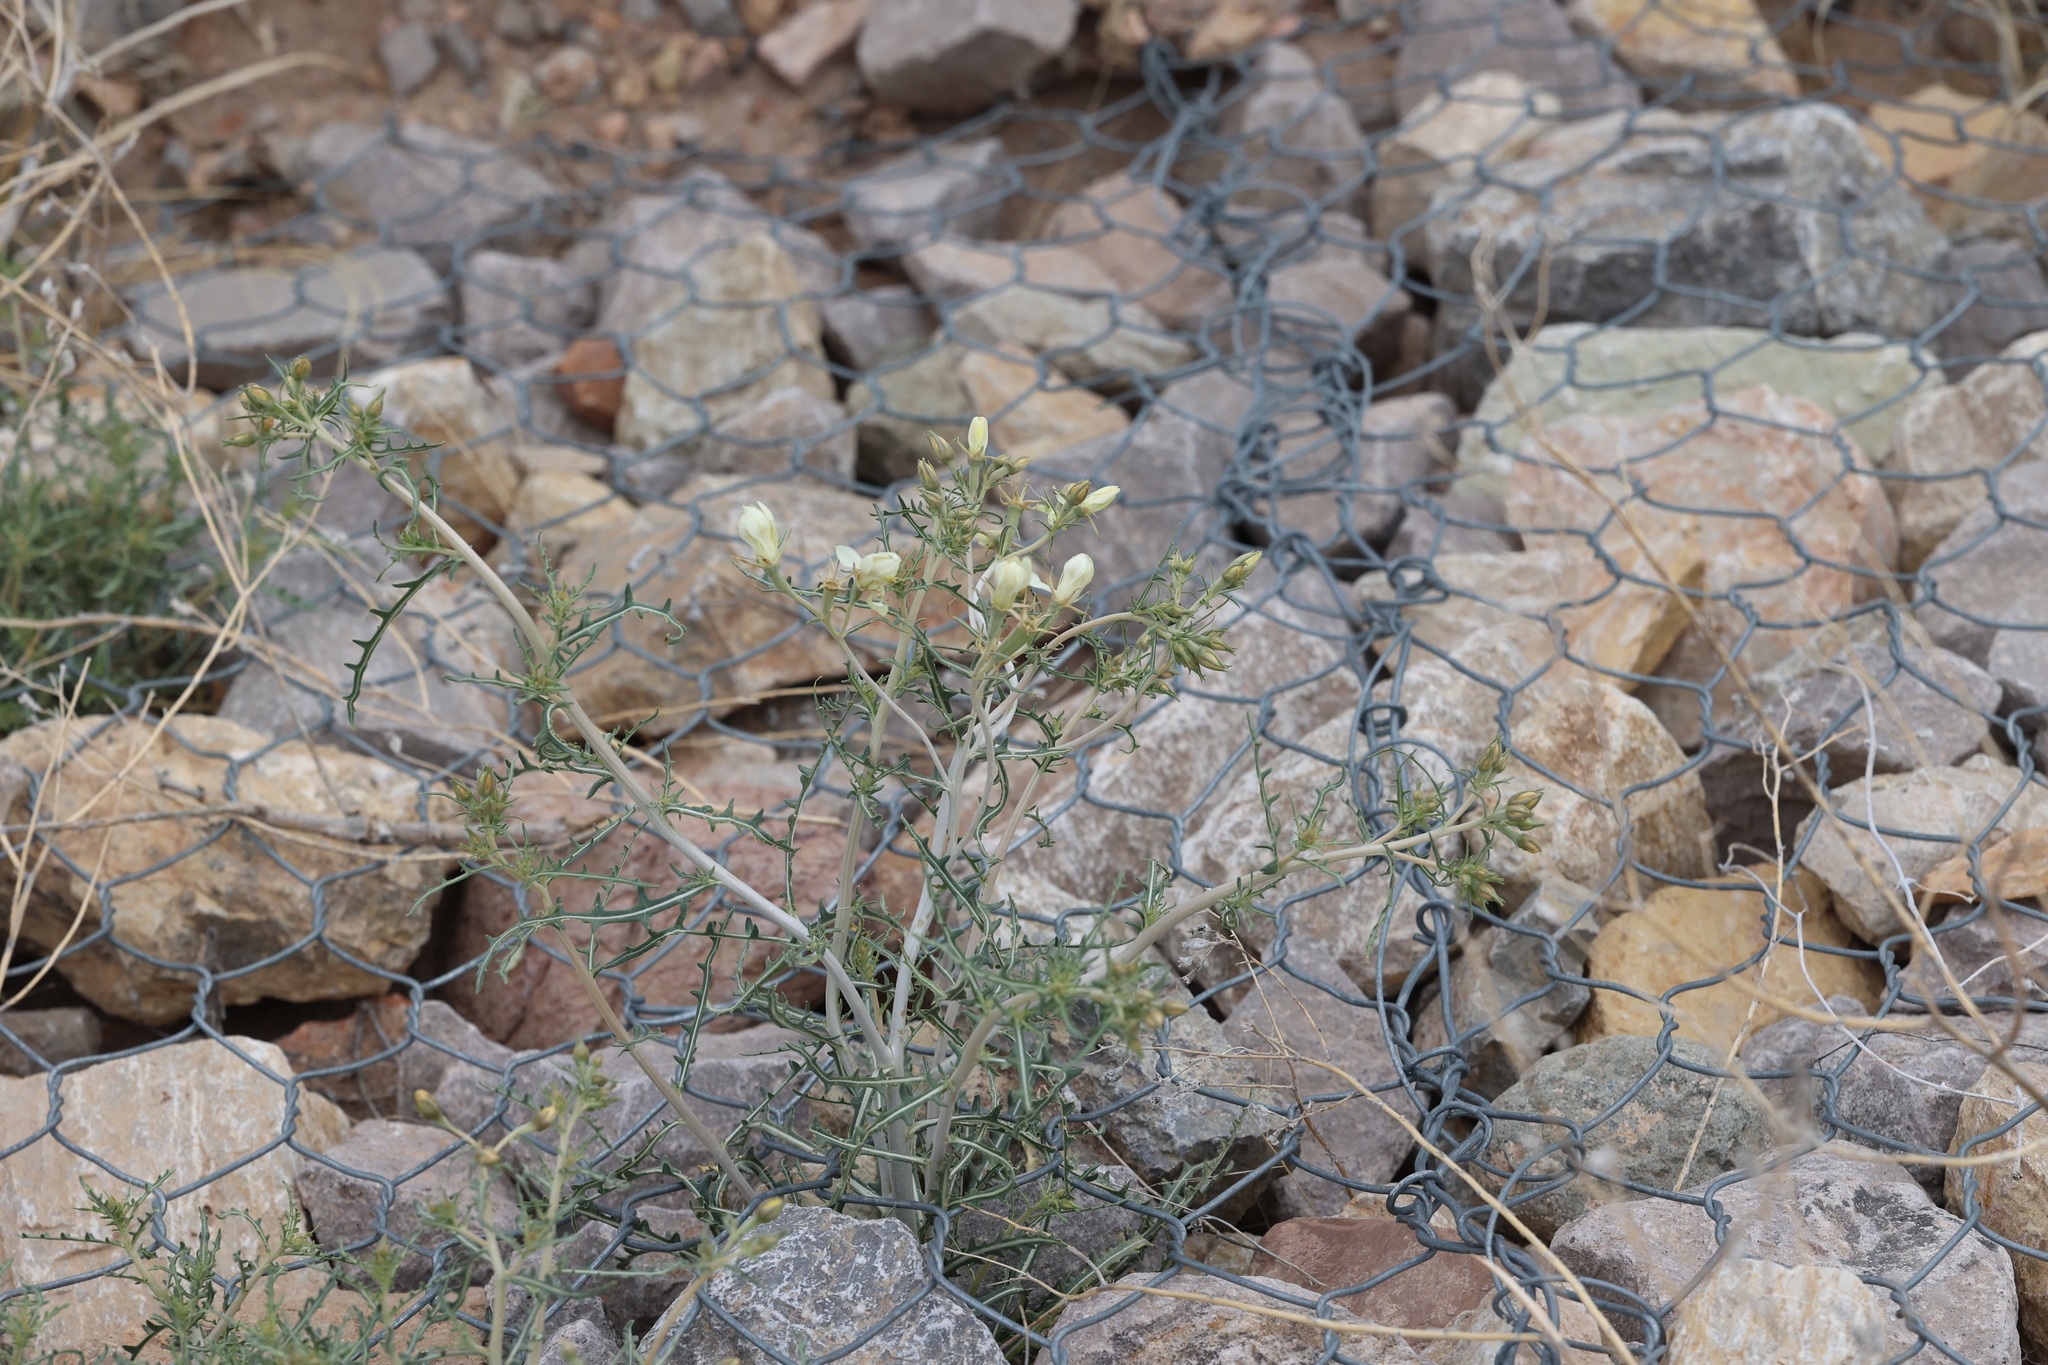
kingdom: Plantae
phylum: Tracheophyta
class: Magnoliopsida
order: Cornales
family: Loasaceae
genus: Mentzelia
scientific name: Mentzelia procera
